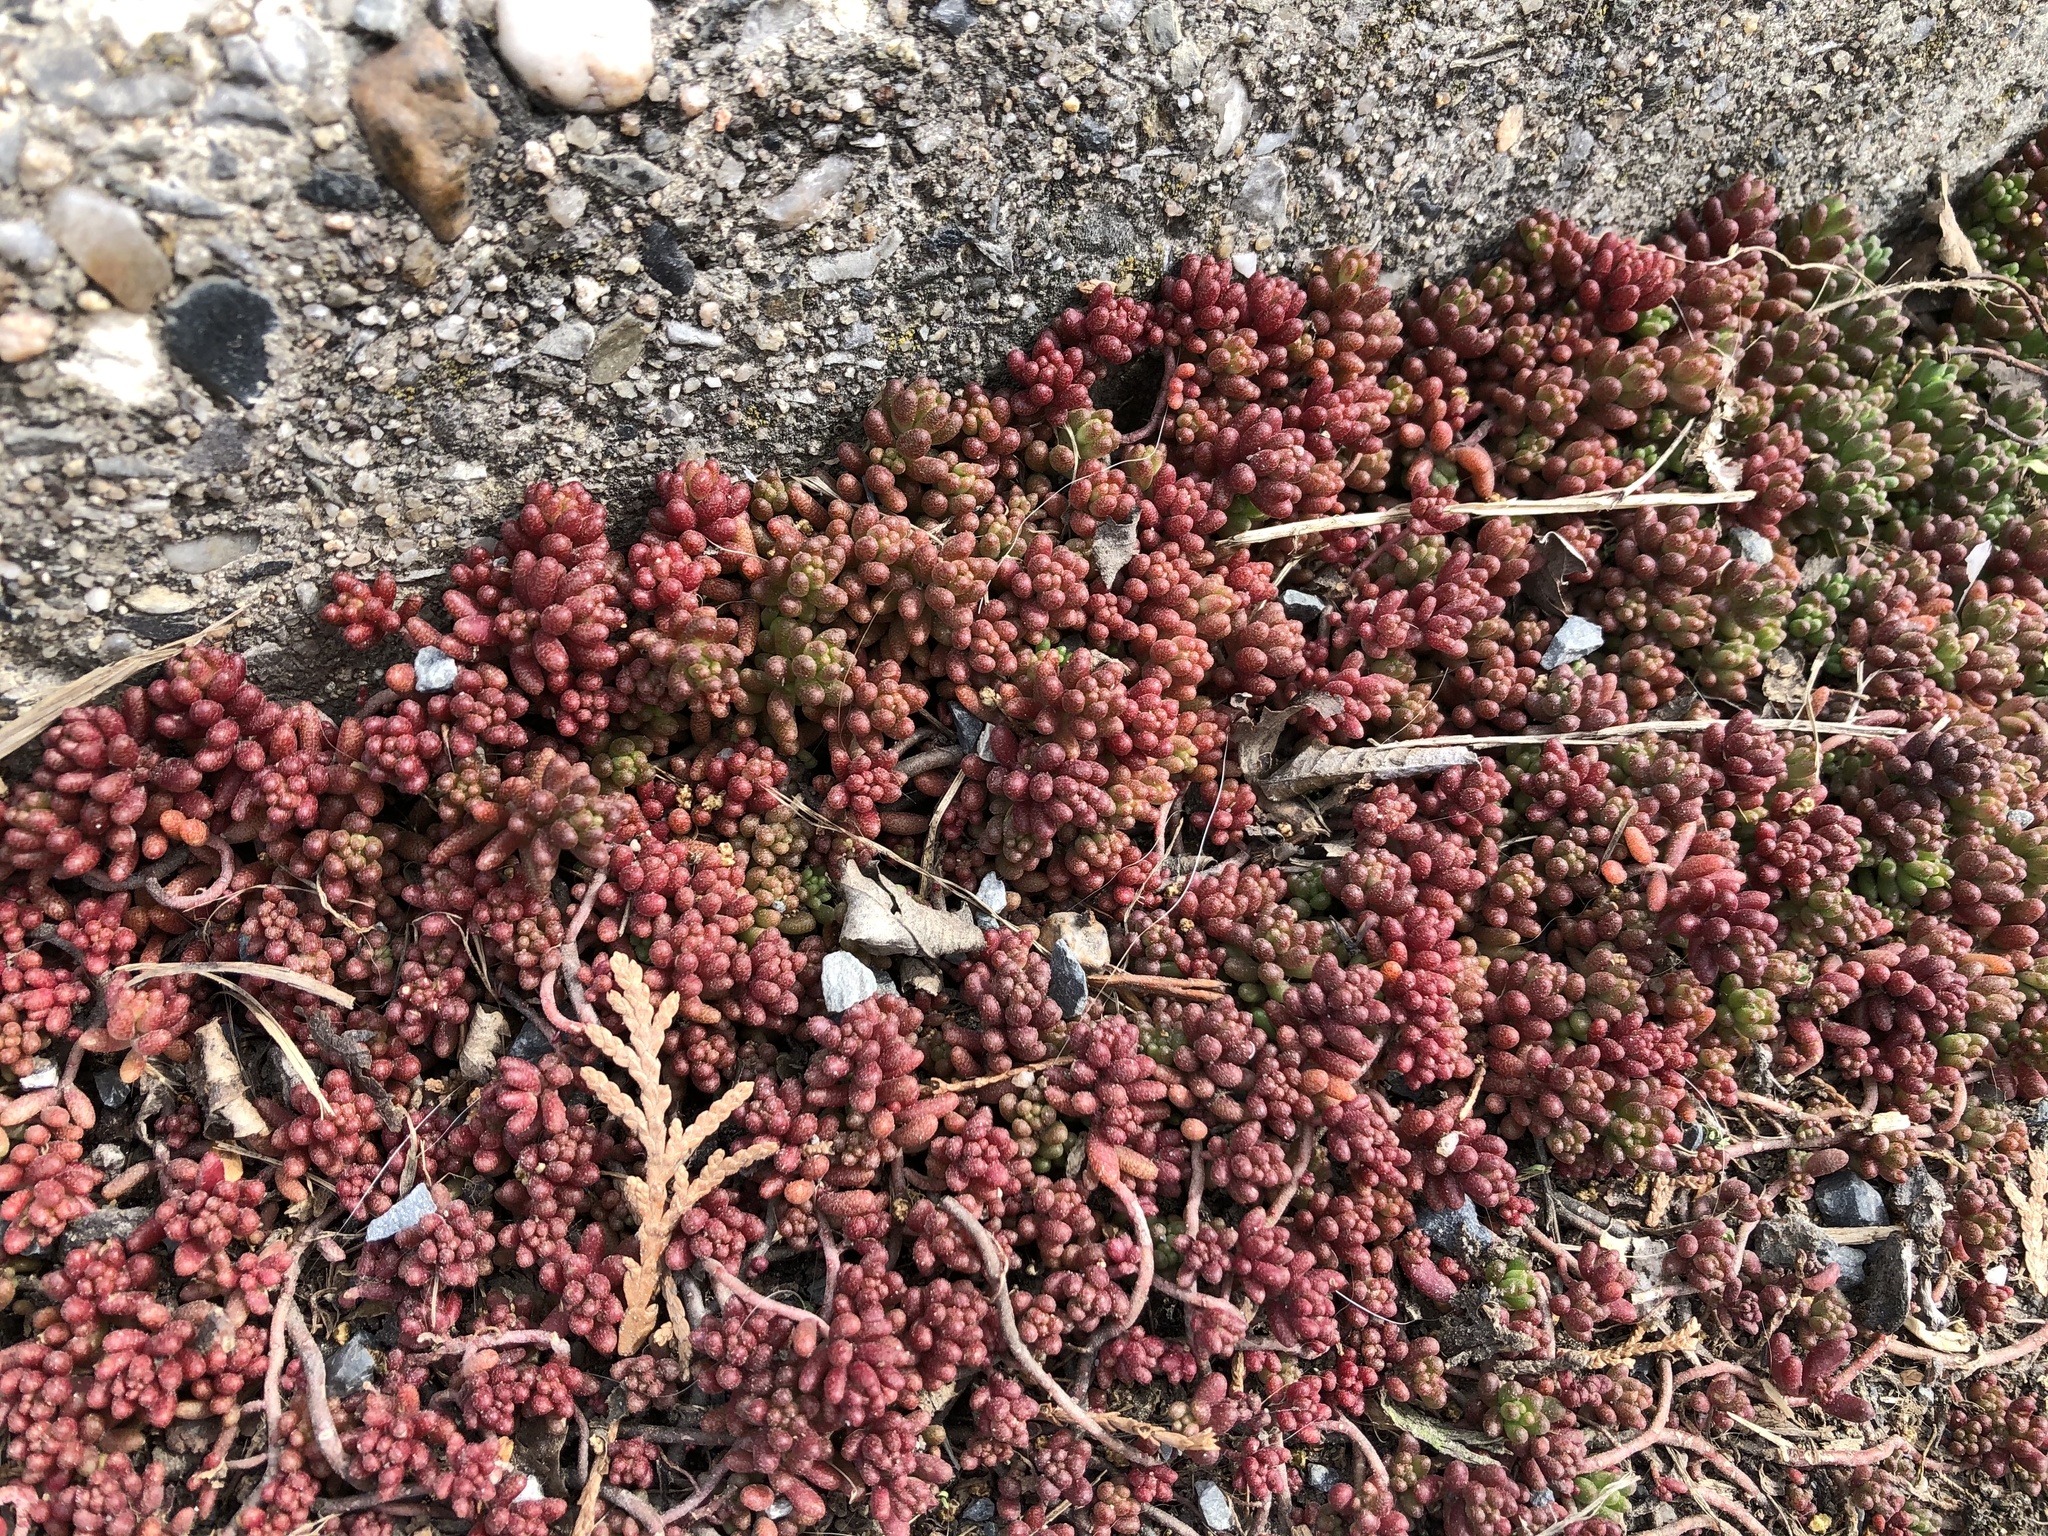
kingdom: Plantae
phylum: Tracheophyta
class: Magnoliopsida
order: Saxifragales
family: Crassulaceae
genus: Sedum
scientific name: Sedum album
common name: White stonecrop
